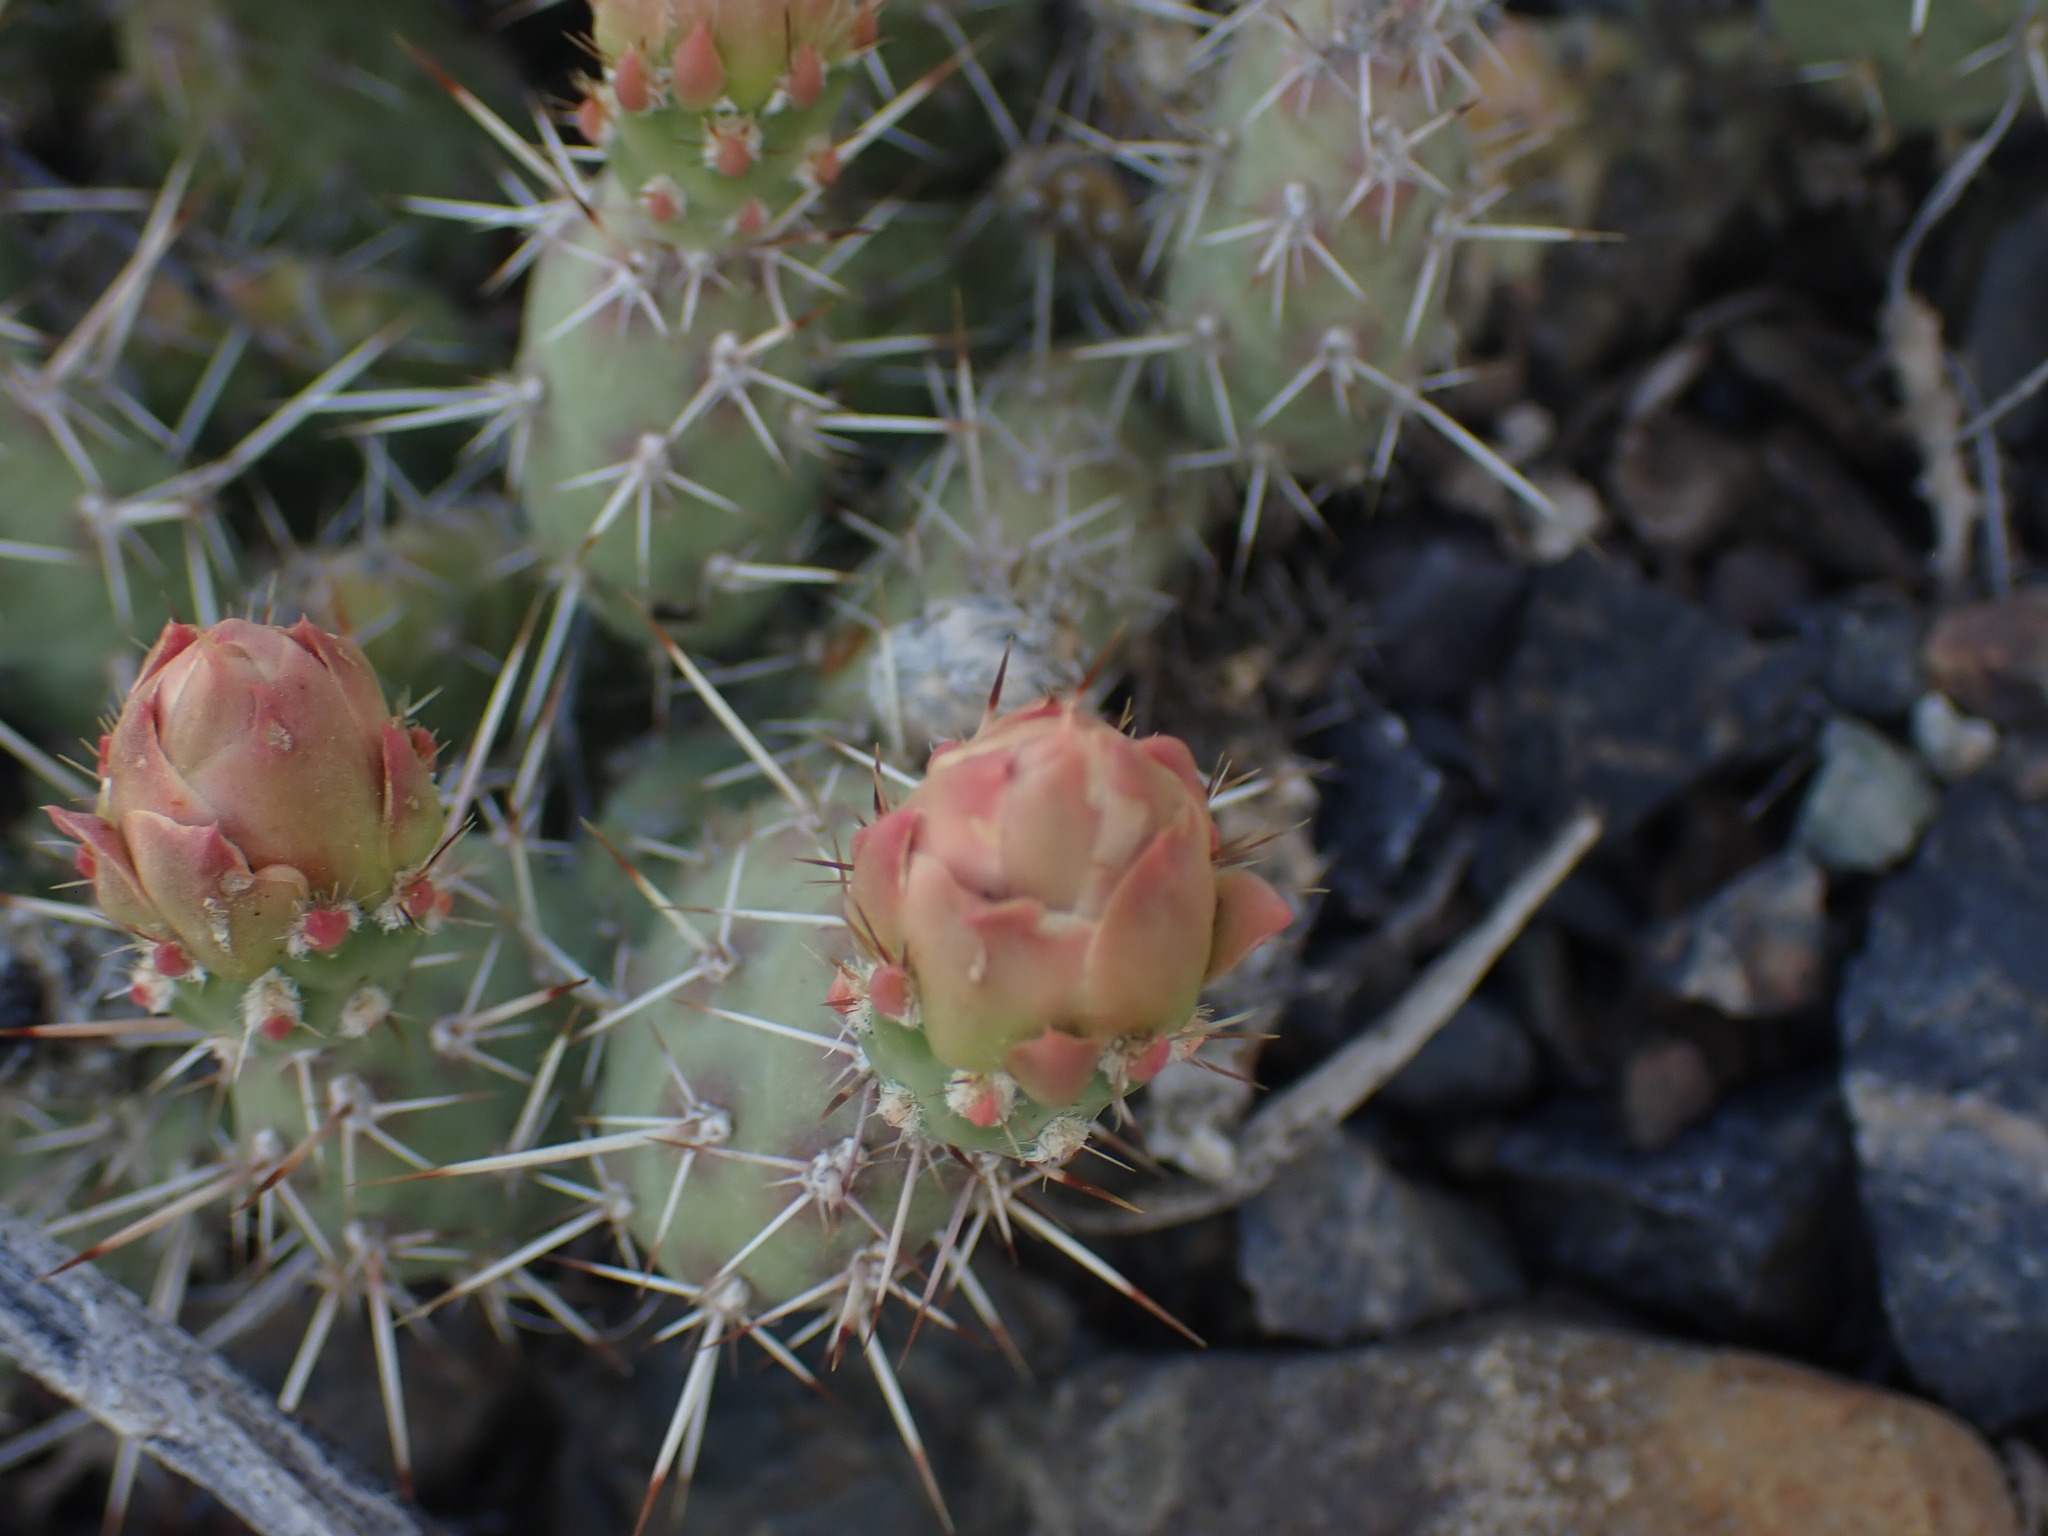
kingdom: Plantae
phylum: Tracheophyta
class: Magnoliopsida
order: Caryophyllales
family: Cactaceae
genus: Opuntia
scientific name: Opuntia fragilis
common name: Brittle cactus
